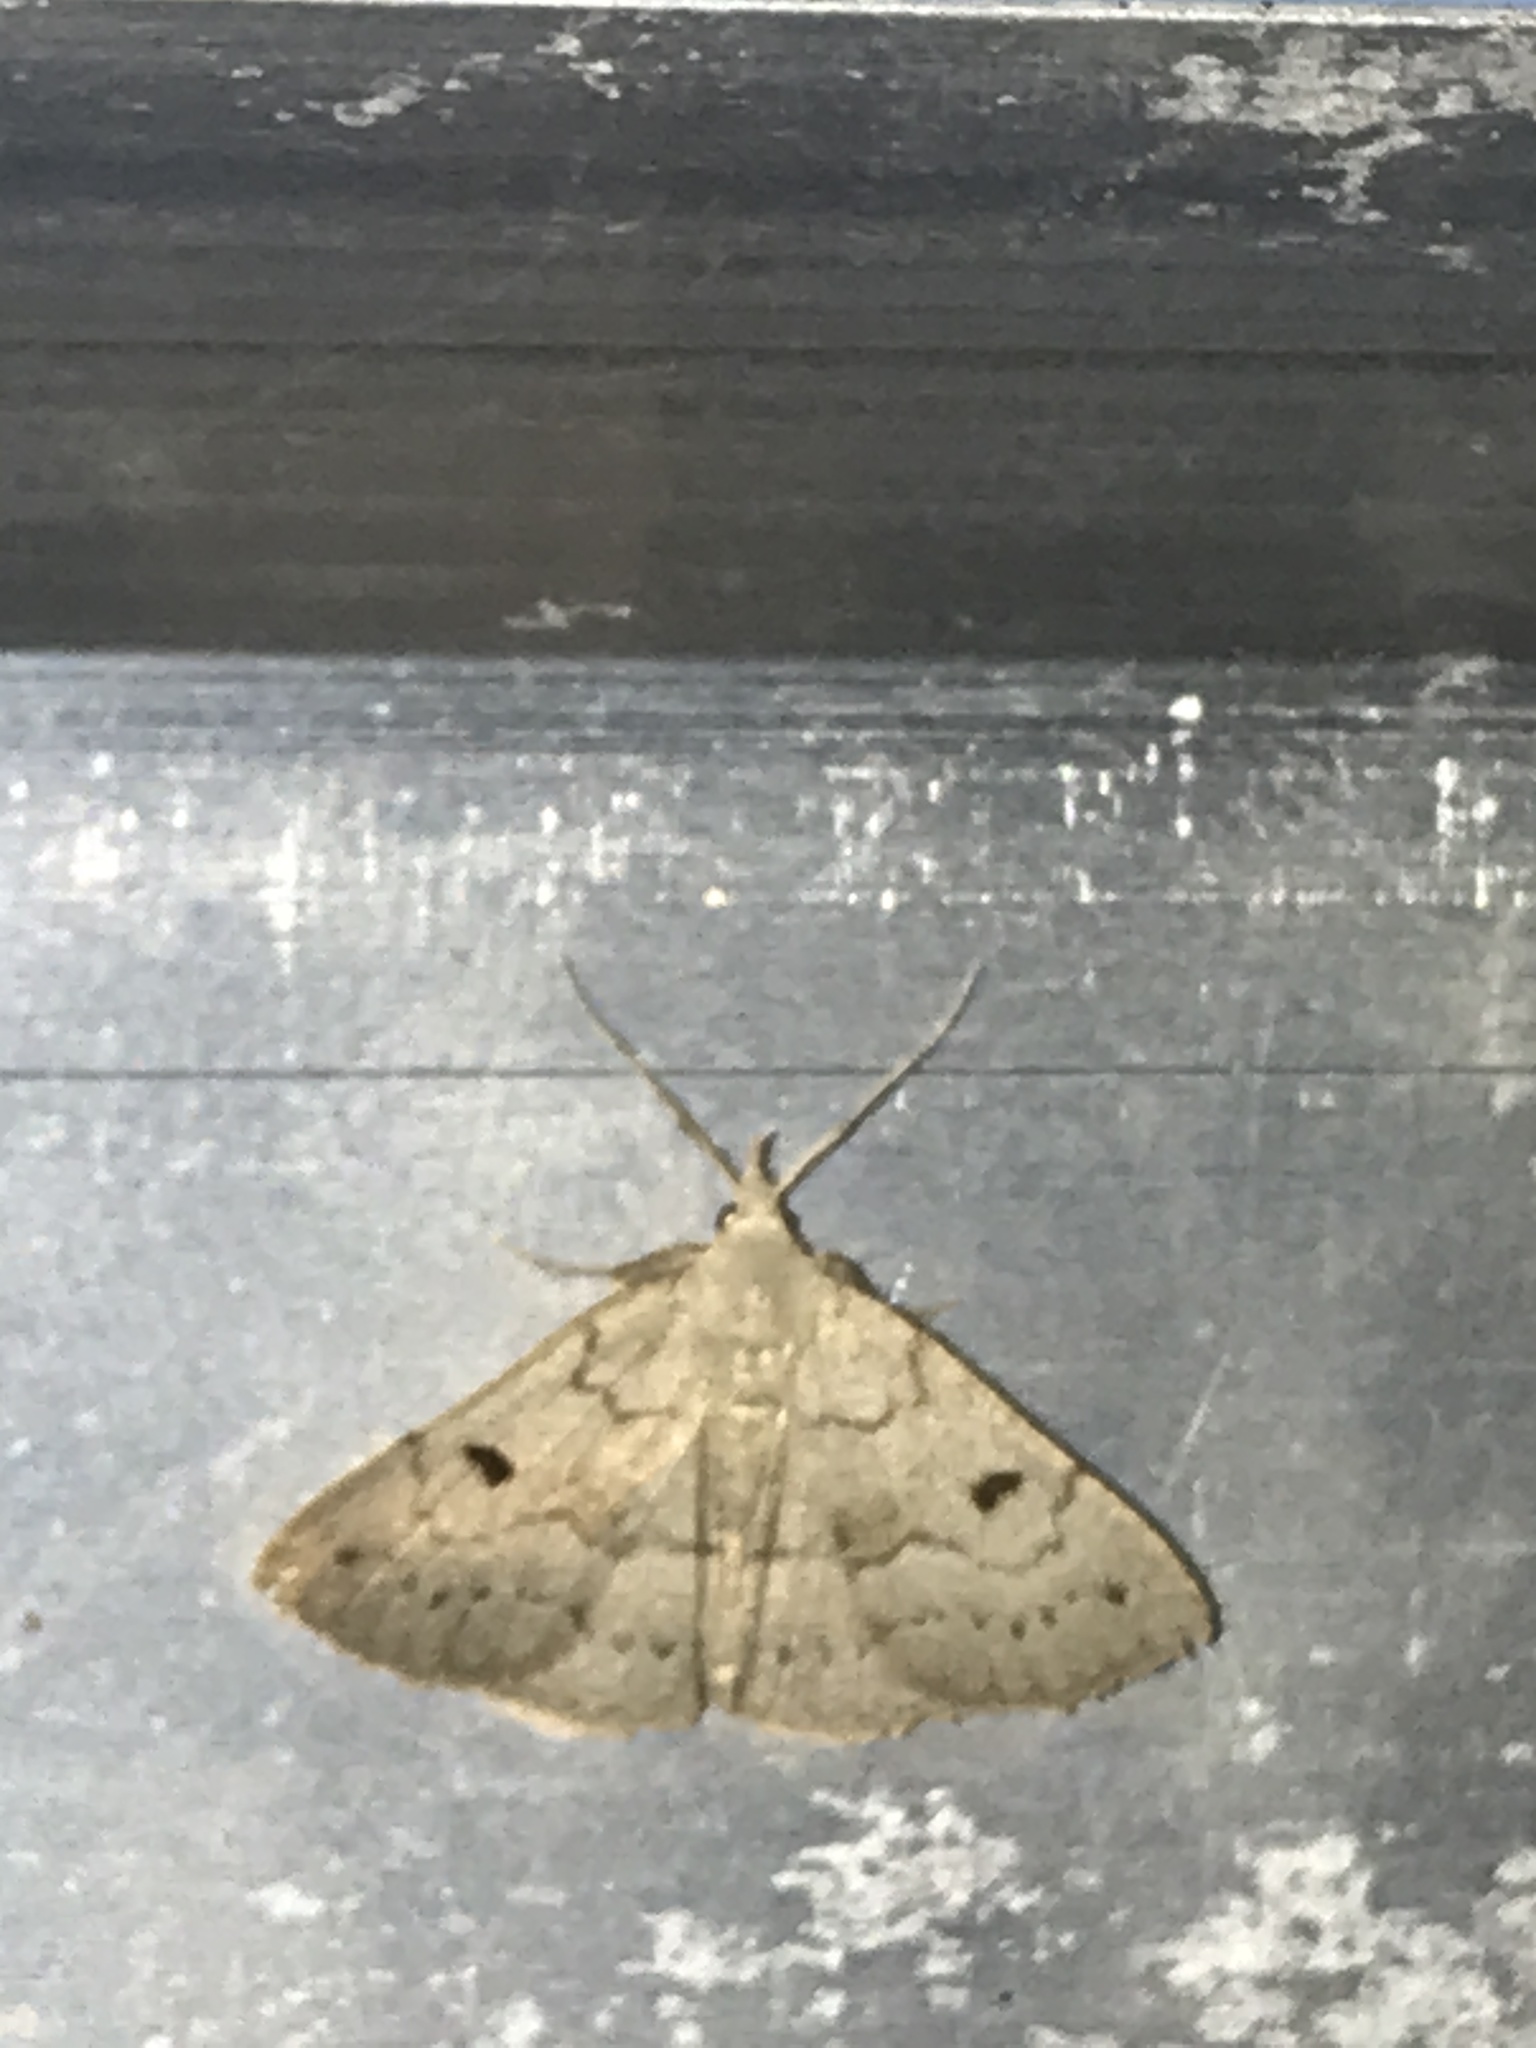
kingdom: Animalia
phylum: Arthropoda
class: Insecta
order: Lepidoptera
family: Erebidae
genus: Macrochilo
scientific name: Macrochilo morbidalis
